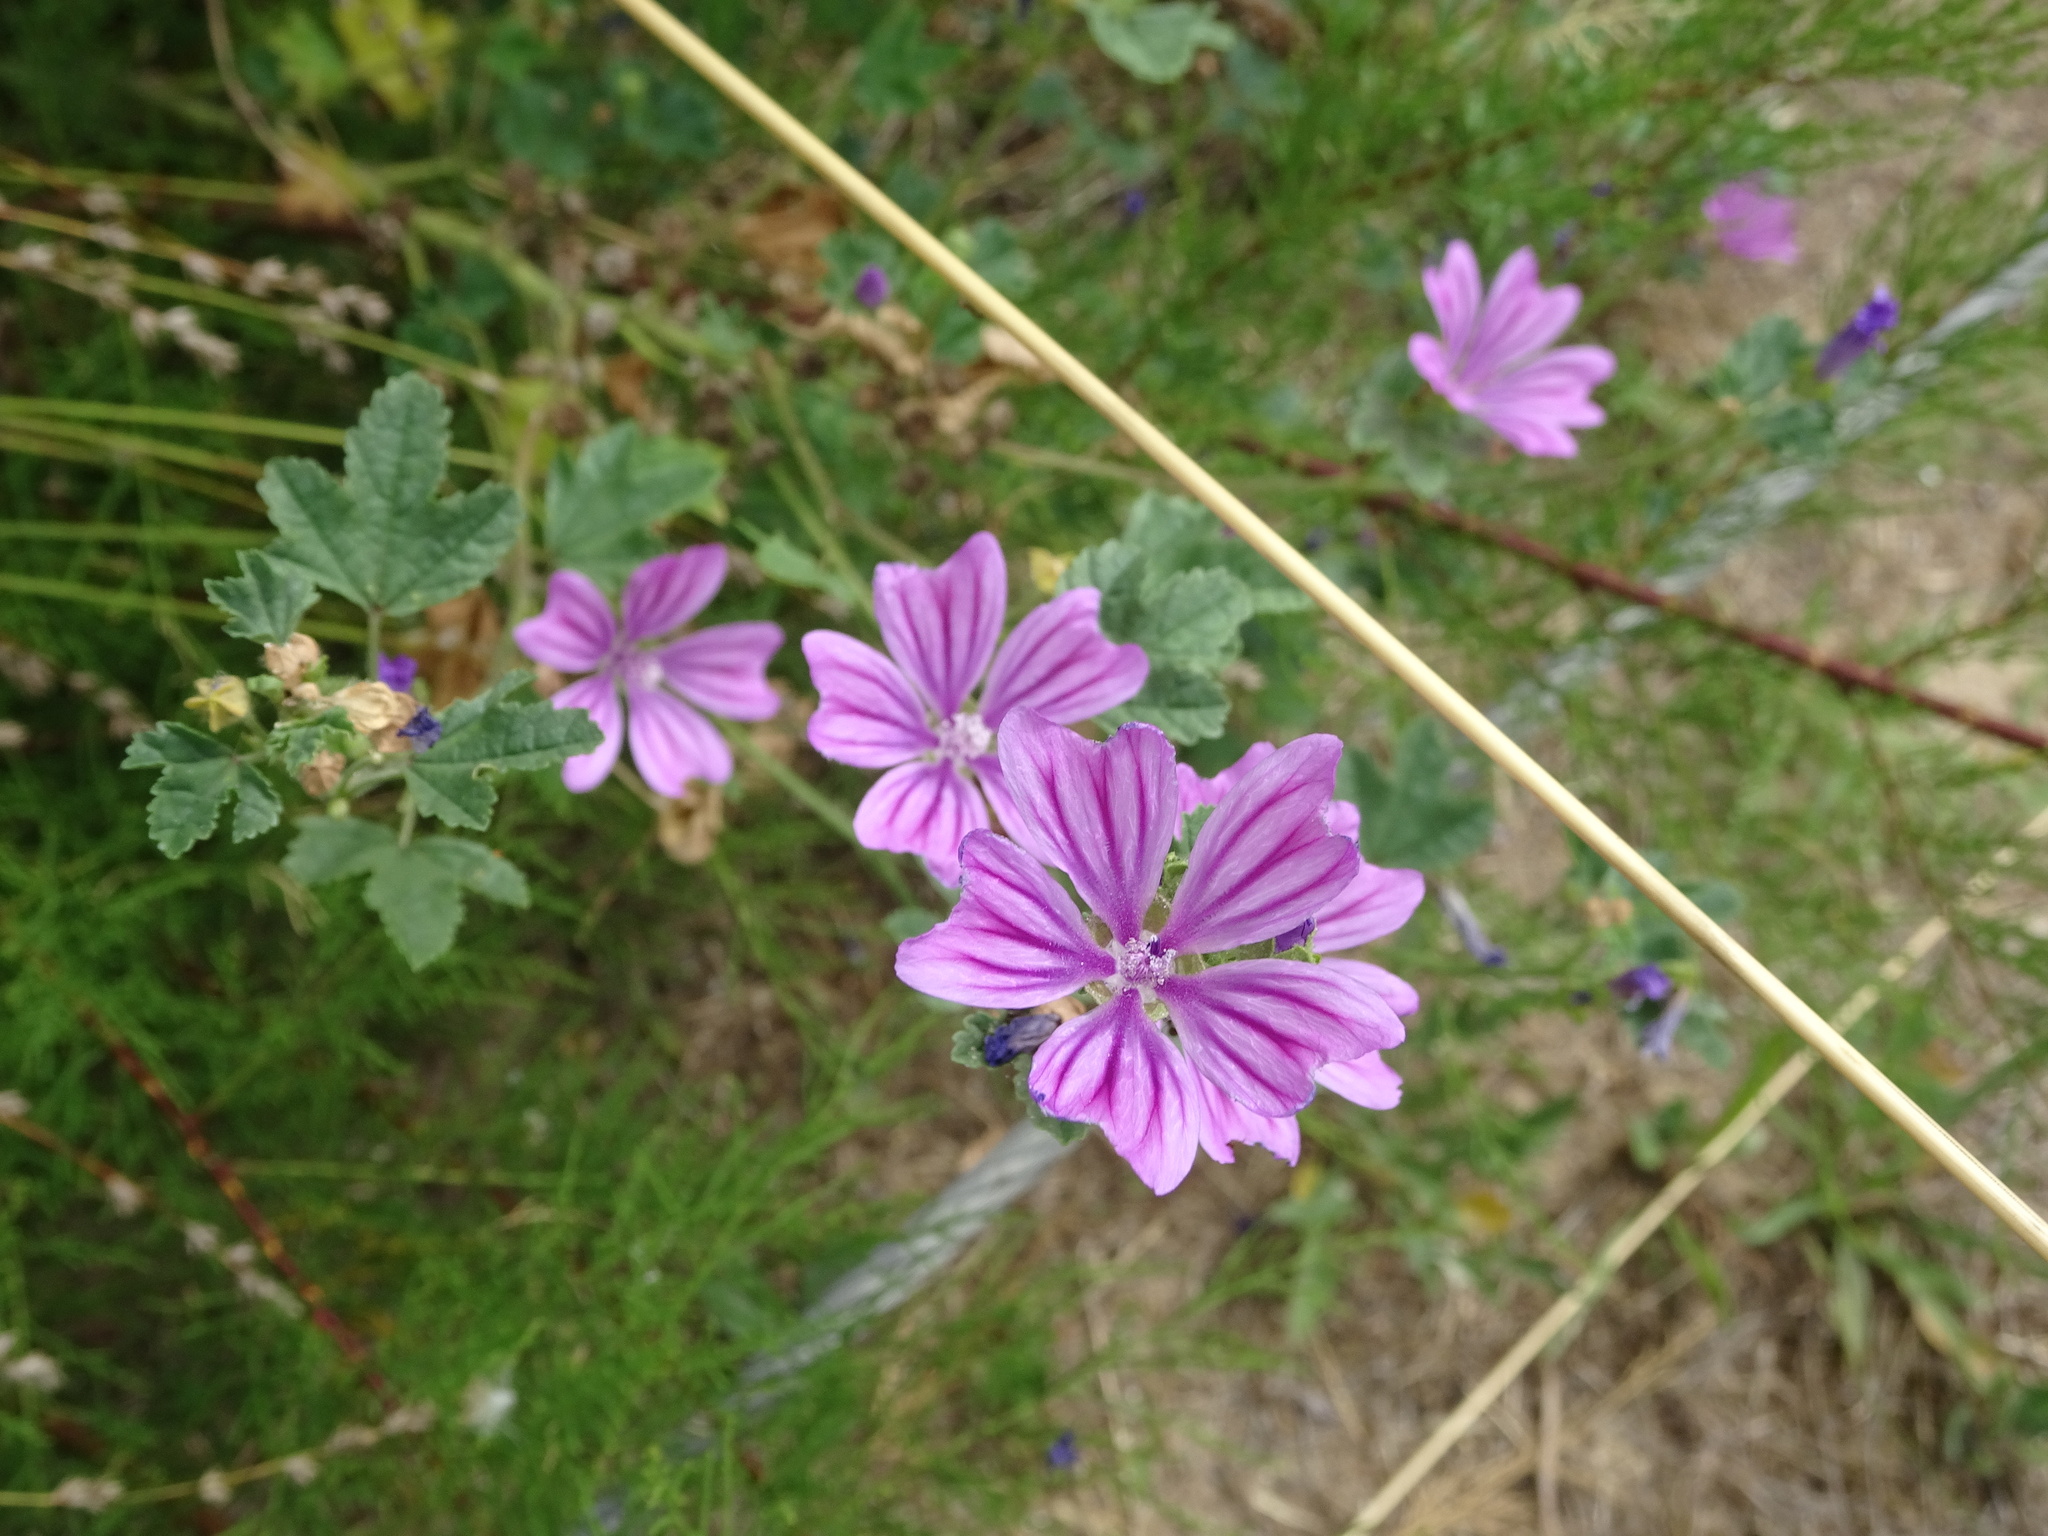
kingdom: Plantae
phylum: Tracheophyta
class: Magnoliopsida
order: Malvales
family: Malvaceae
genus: Malva
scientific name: Malva sylvestris
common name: Common mallow
